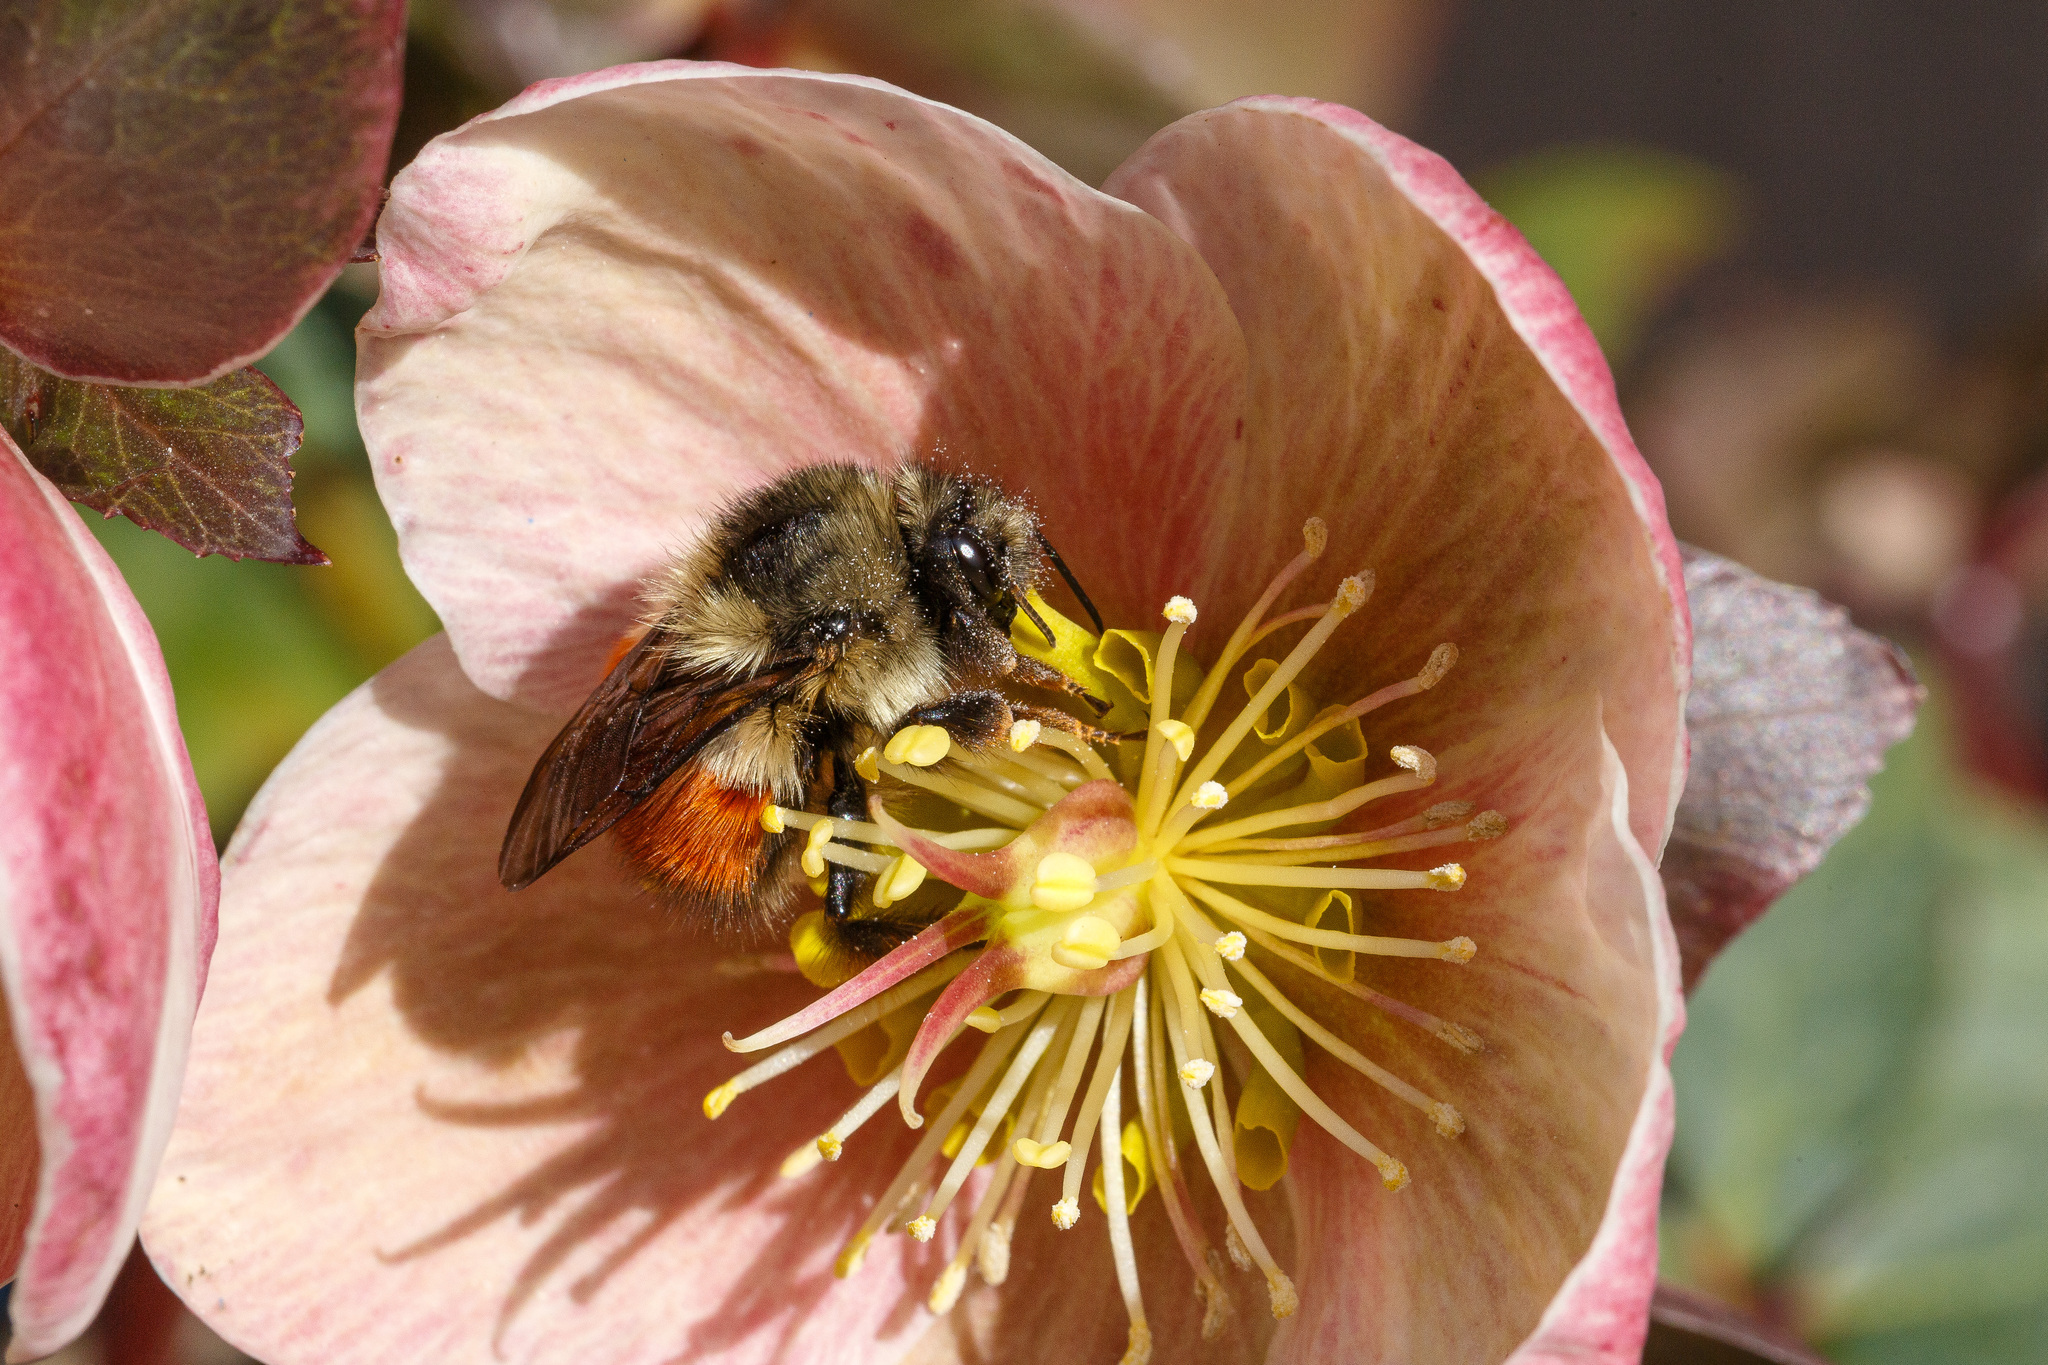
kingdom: Animalia
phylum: Arthropoda
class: Insecta
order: Hymenoptera
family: Apidae
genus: Bombus
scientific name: Bombus melanopygus
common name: Black tail bumble bee
